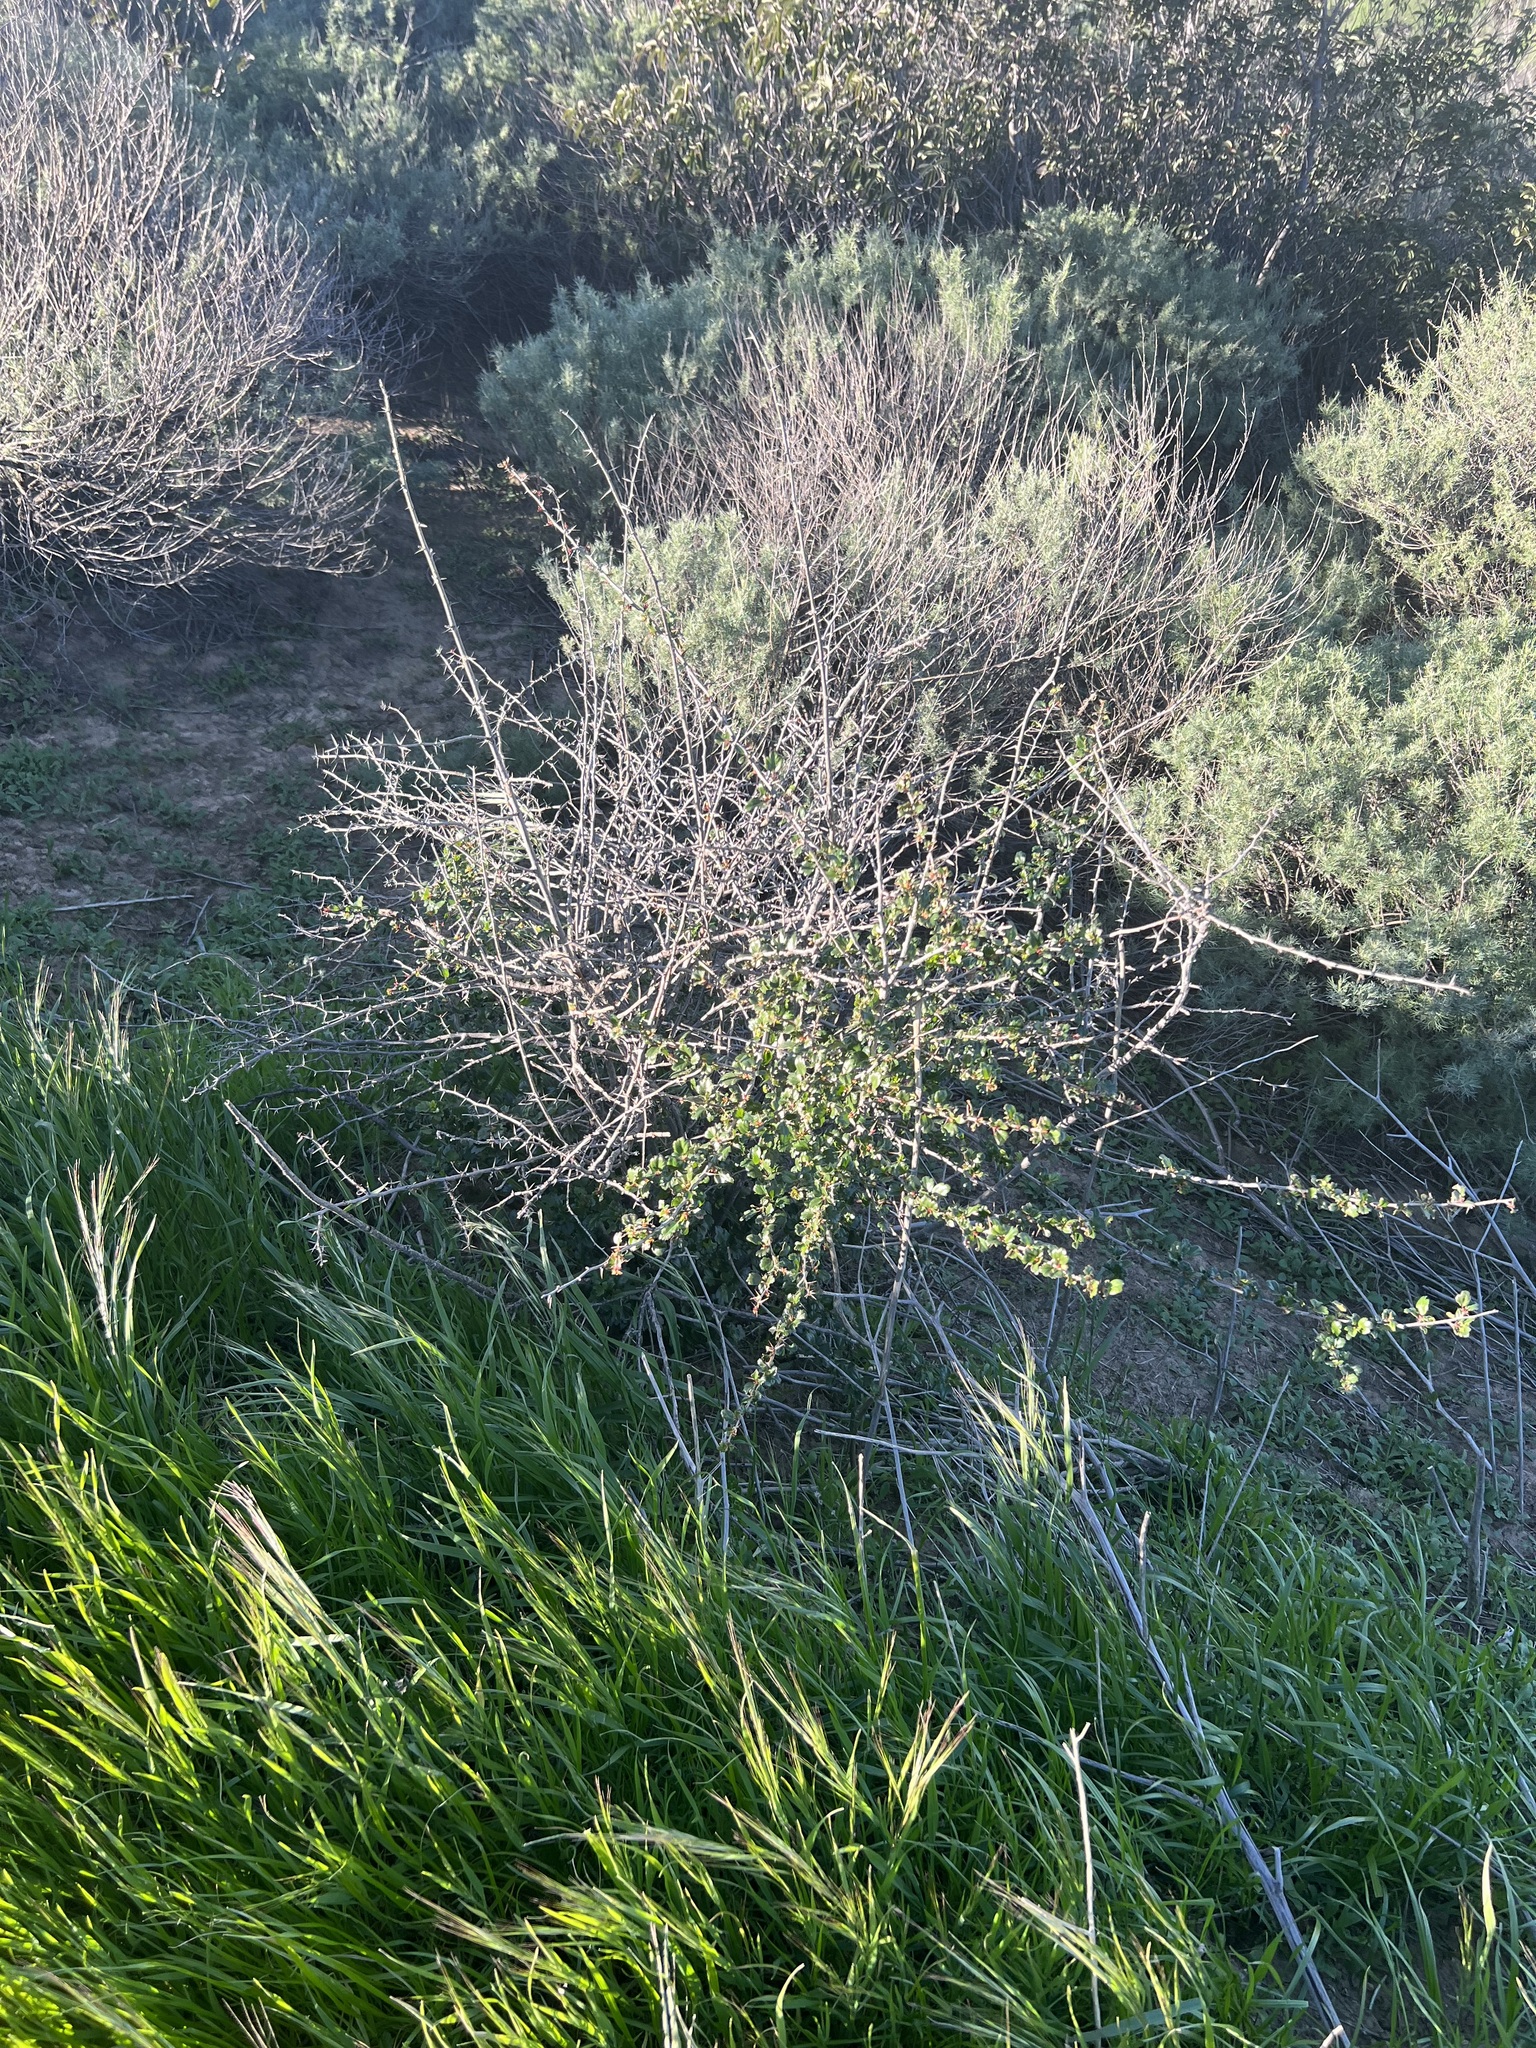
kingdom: Plantae
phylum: Tracheophyta
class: Magnoliopsida
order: Saxifragales
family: Grossulariaceae
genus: Ribes
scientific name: Ribes speciosum
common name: Fuchsia-flower gooseberry
